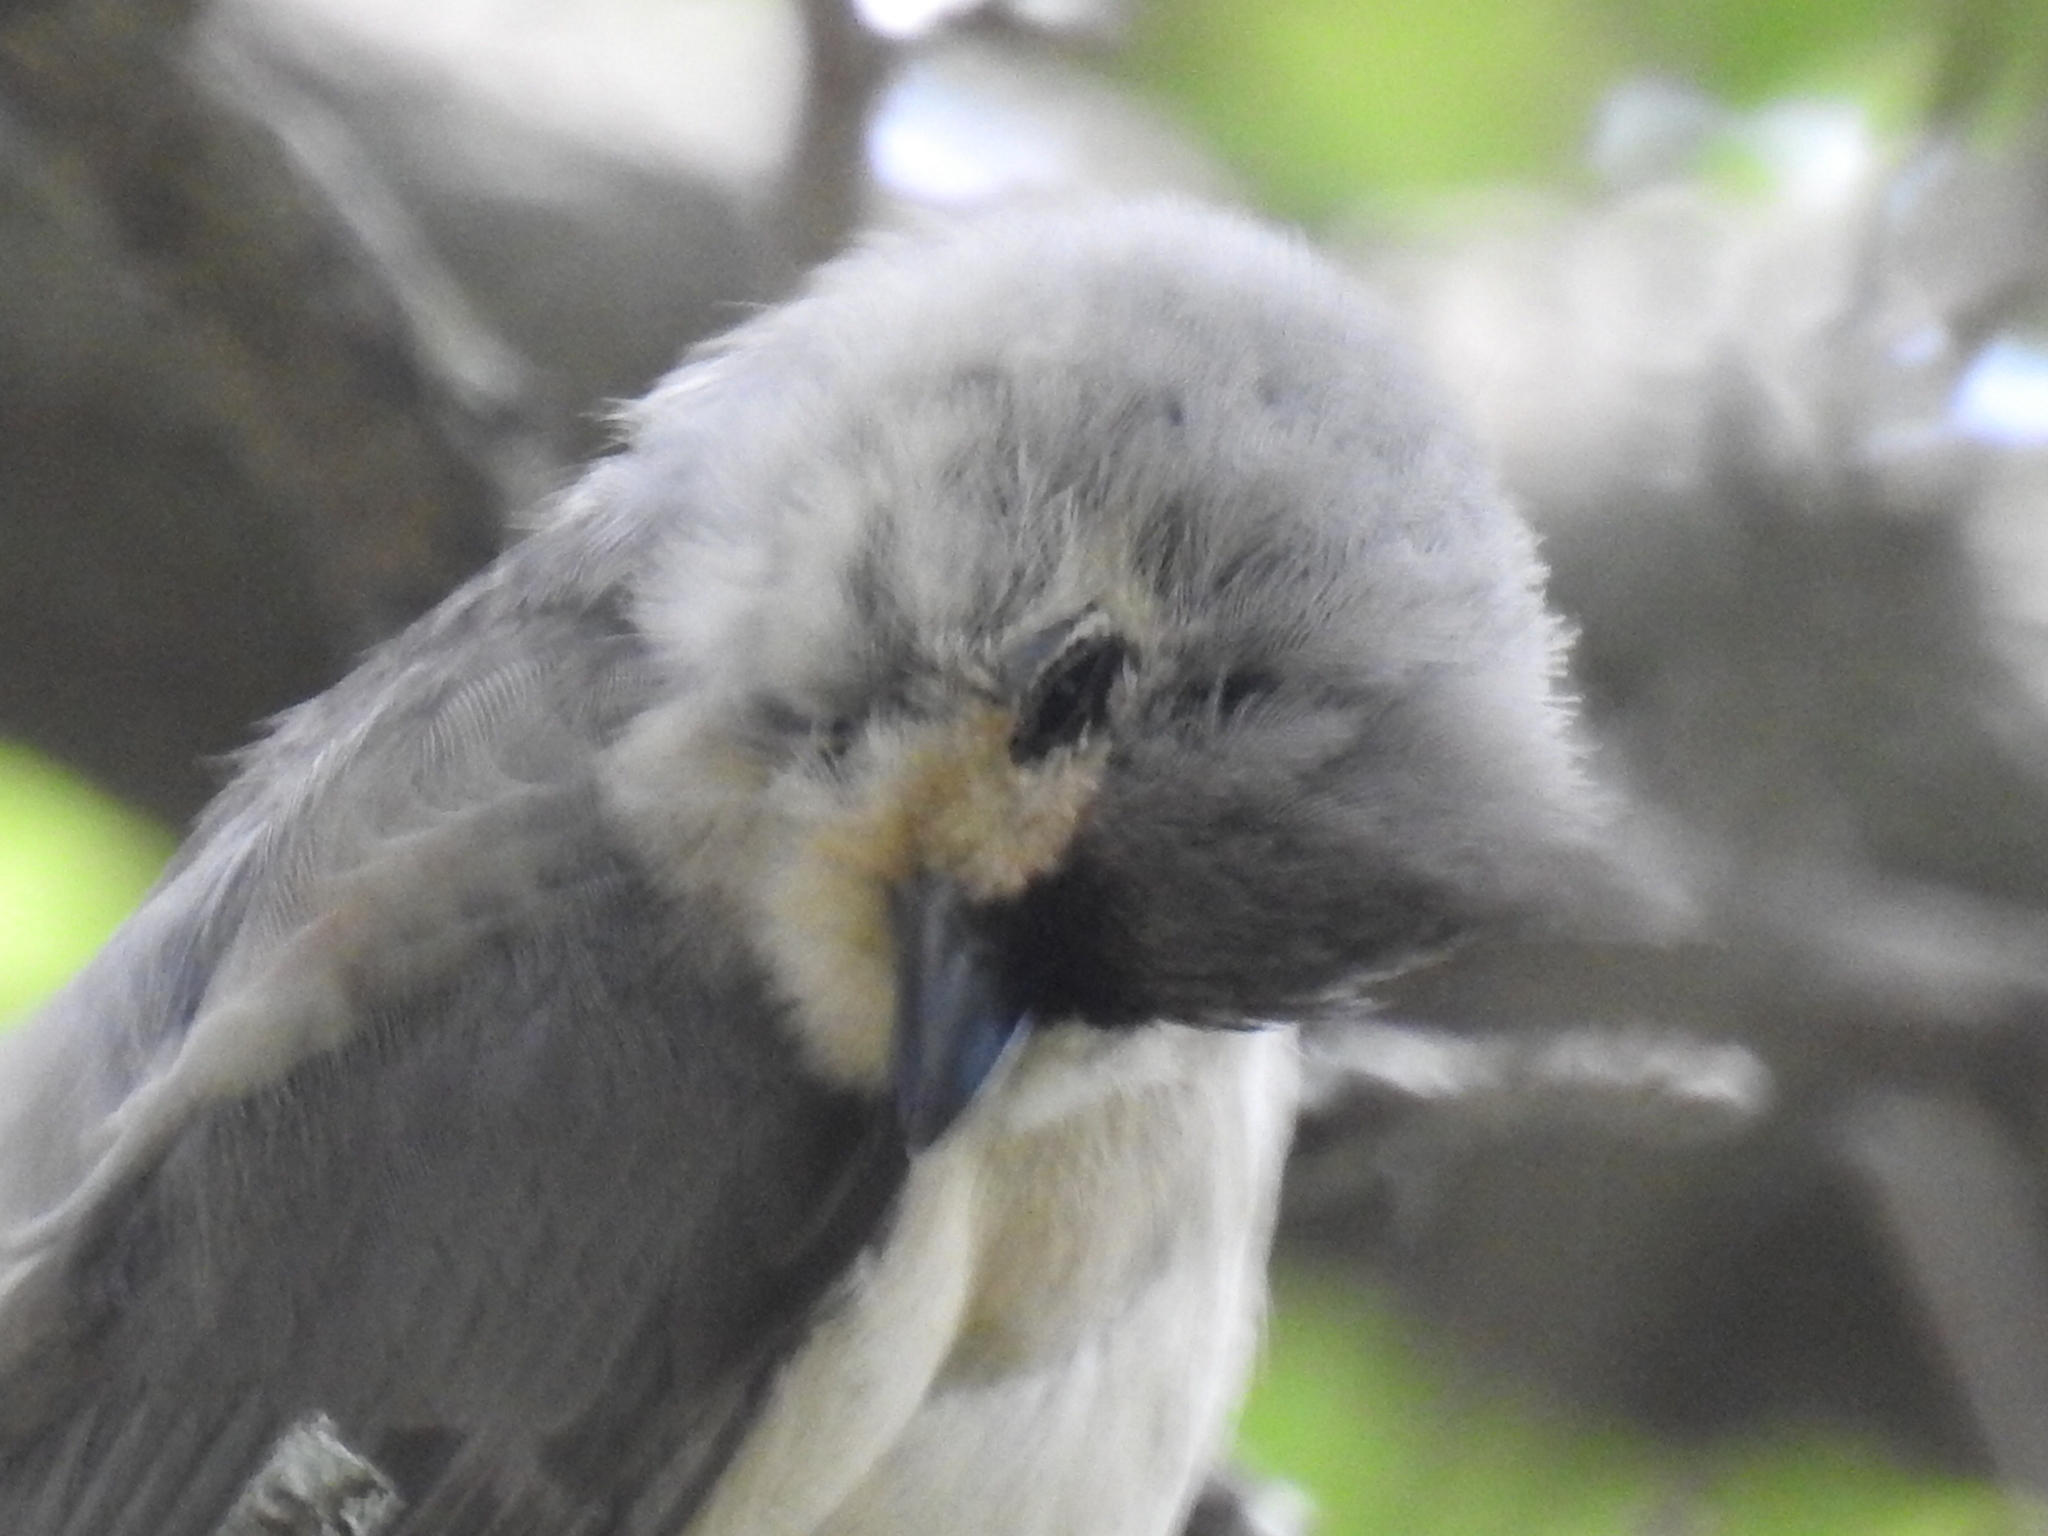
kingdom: Animalia
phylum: Chordata
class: Aves
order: Passeriformes
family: Paridae
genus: Baeolophus
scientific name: Baeolophus bicolor
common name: Tufted titmouse
